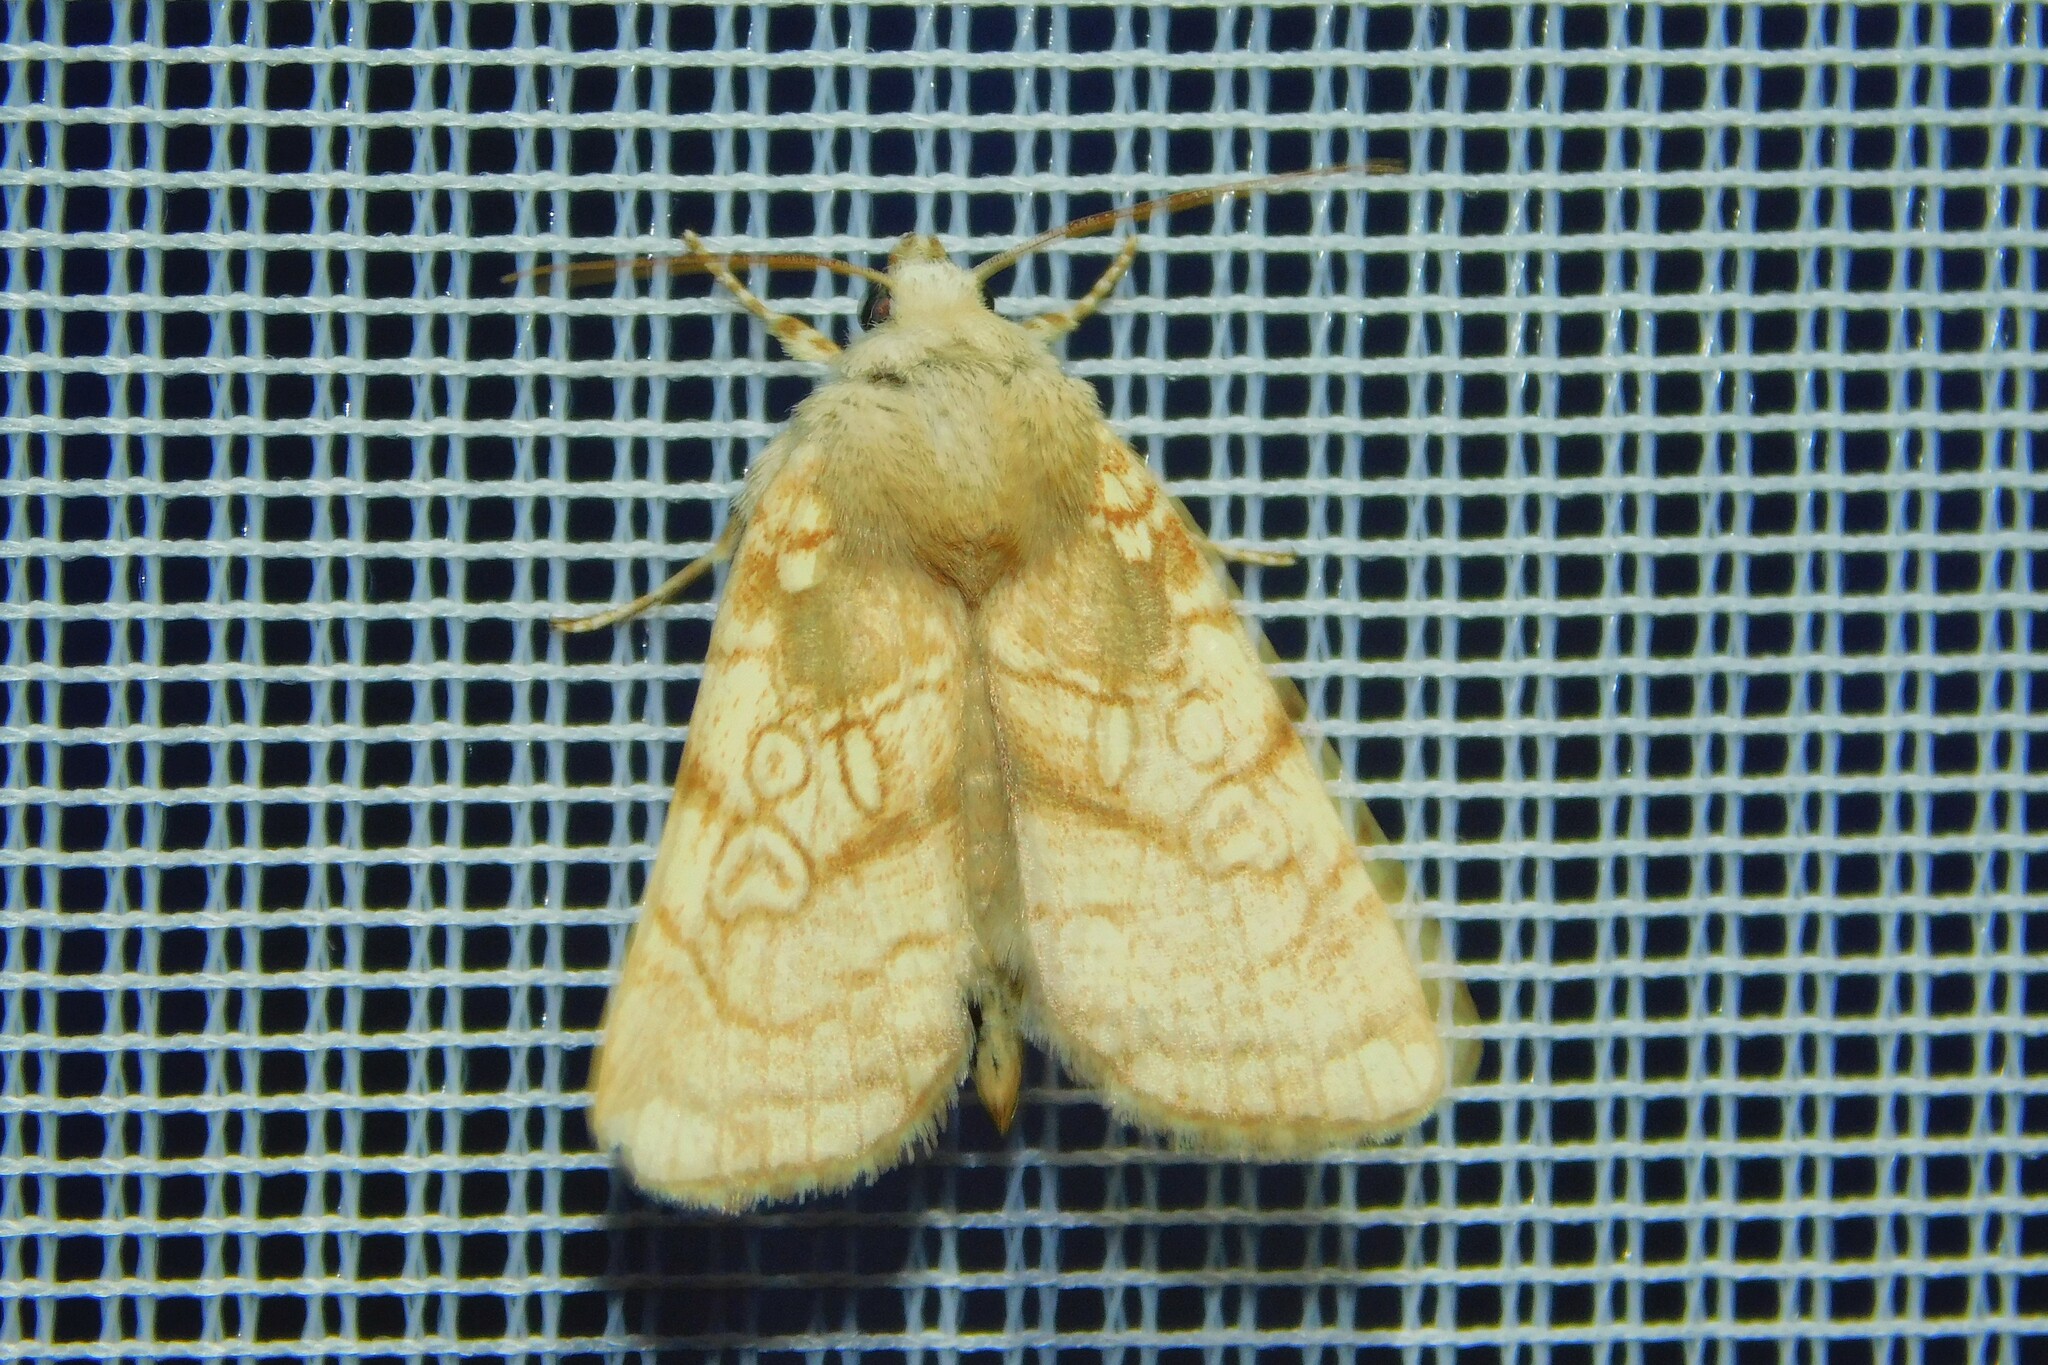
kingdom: Animalia
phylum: Arthropoda
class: Insecta
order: Lepidoptera
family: Noctuidae
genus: Dicycla
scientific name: Dicycla oo
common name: Heart moth
